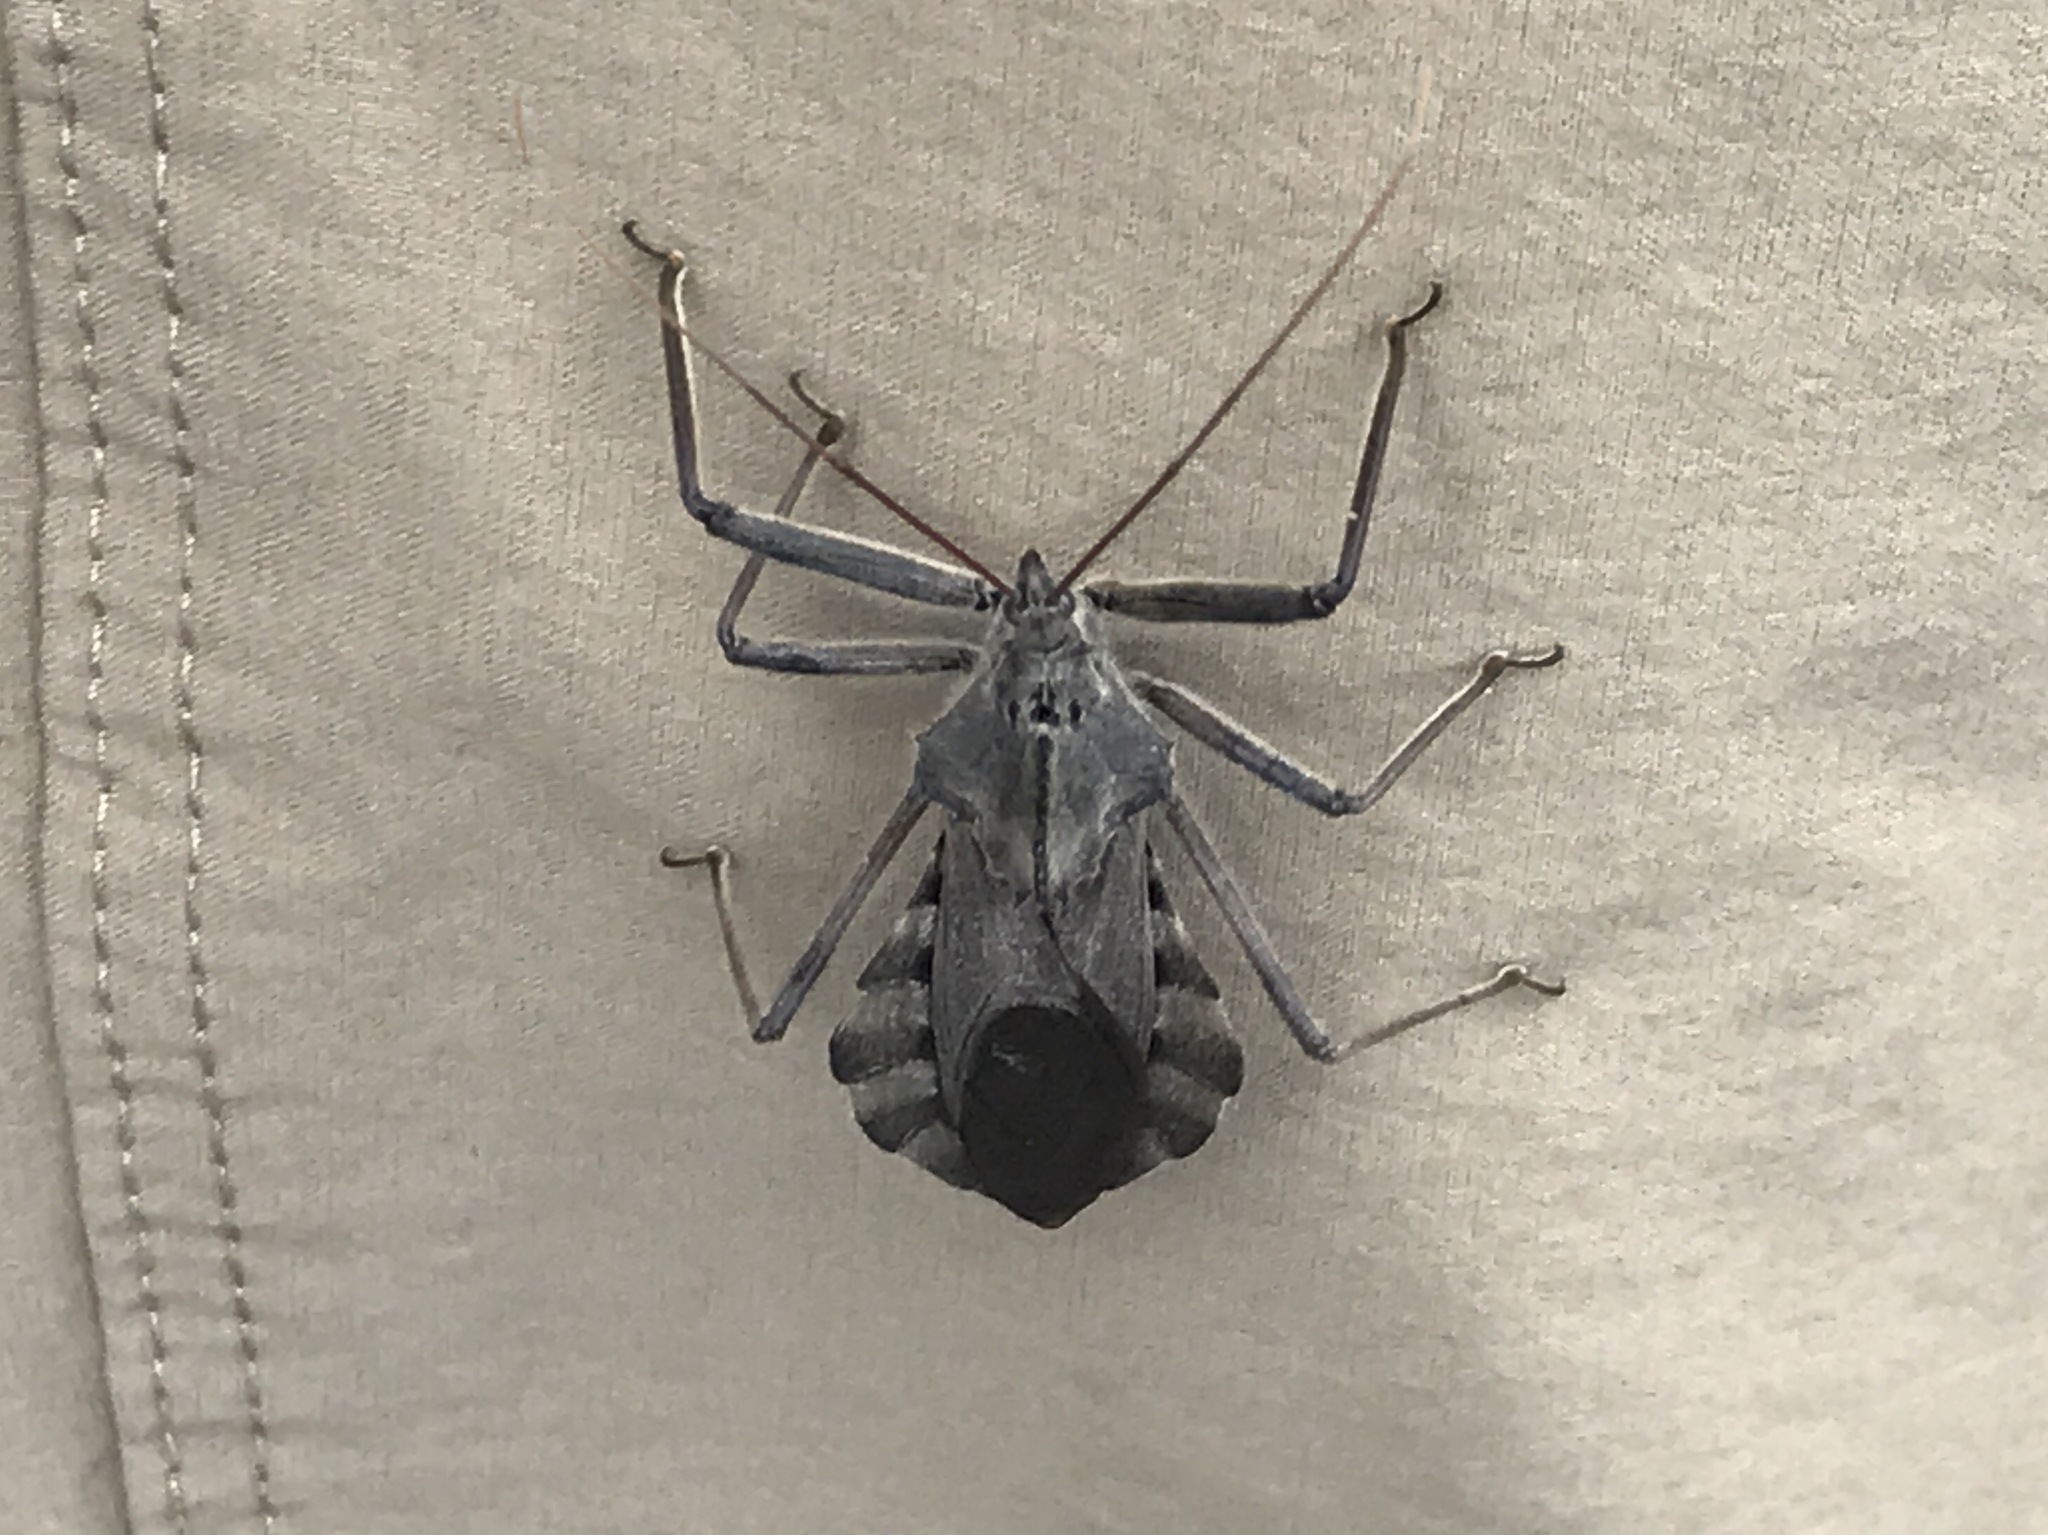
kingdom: Animalia
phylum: Arthropoda
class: Insecta
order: Hemiptera
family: Reduviidae
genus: Arilus
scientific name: Arilus cristatus
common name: North american wheel bug
